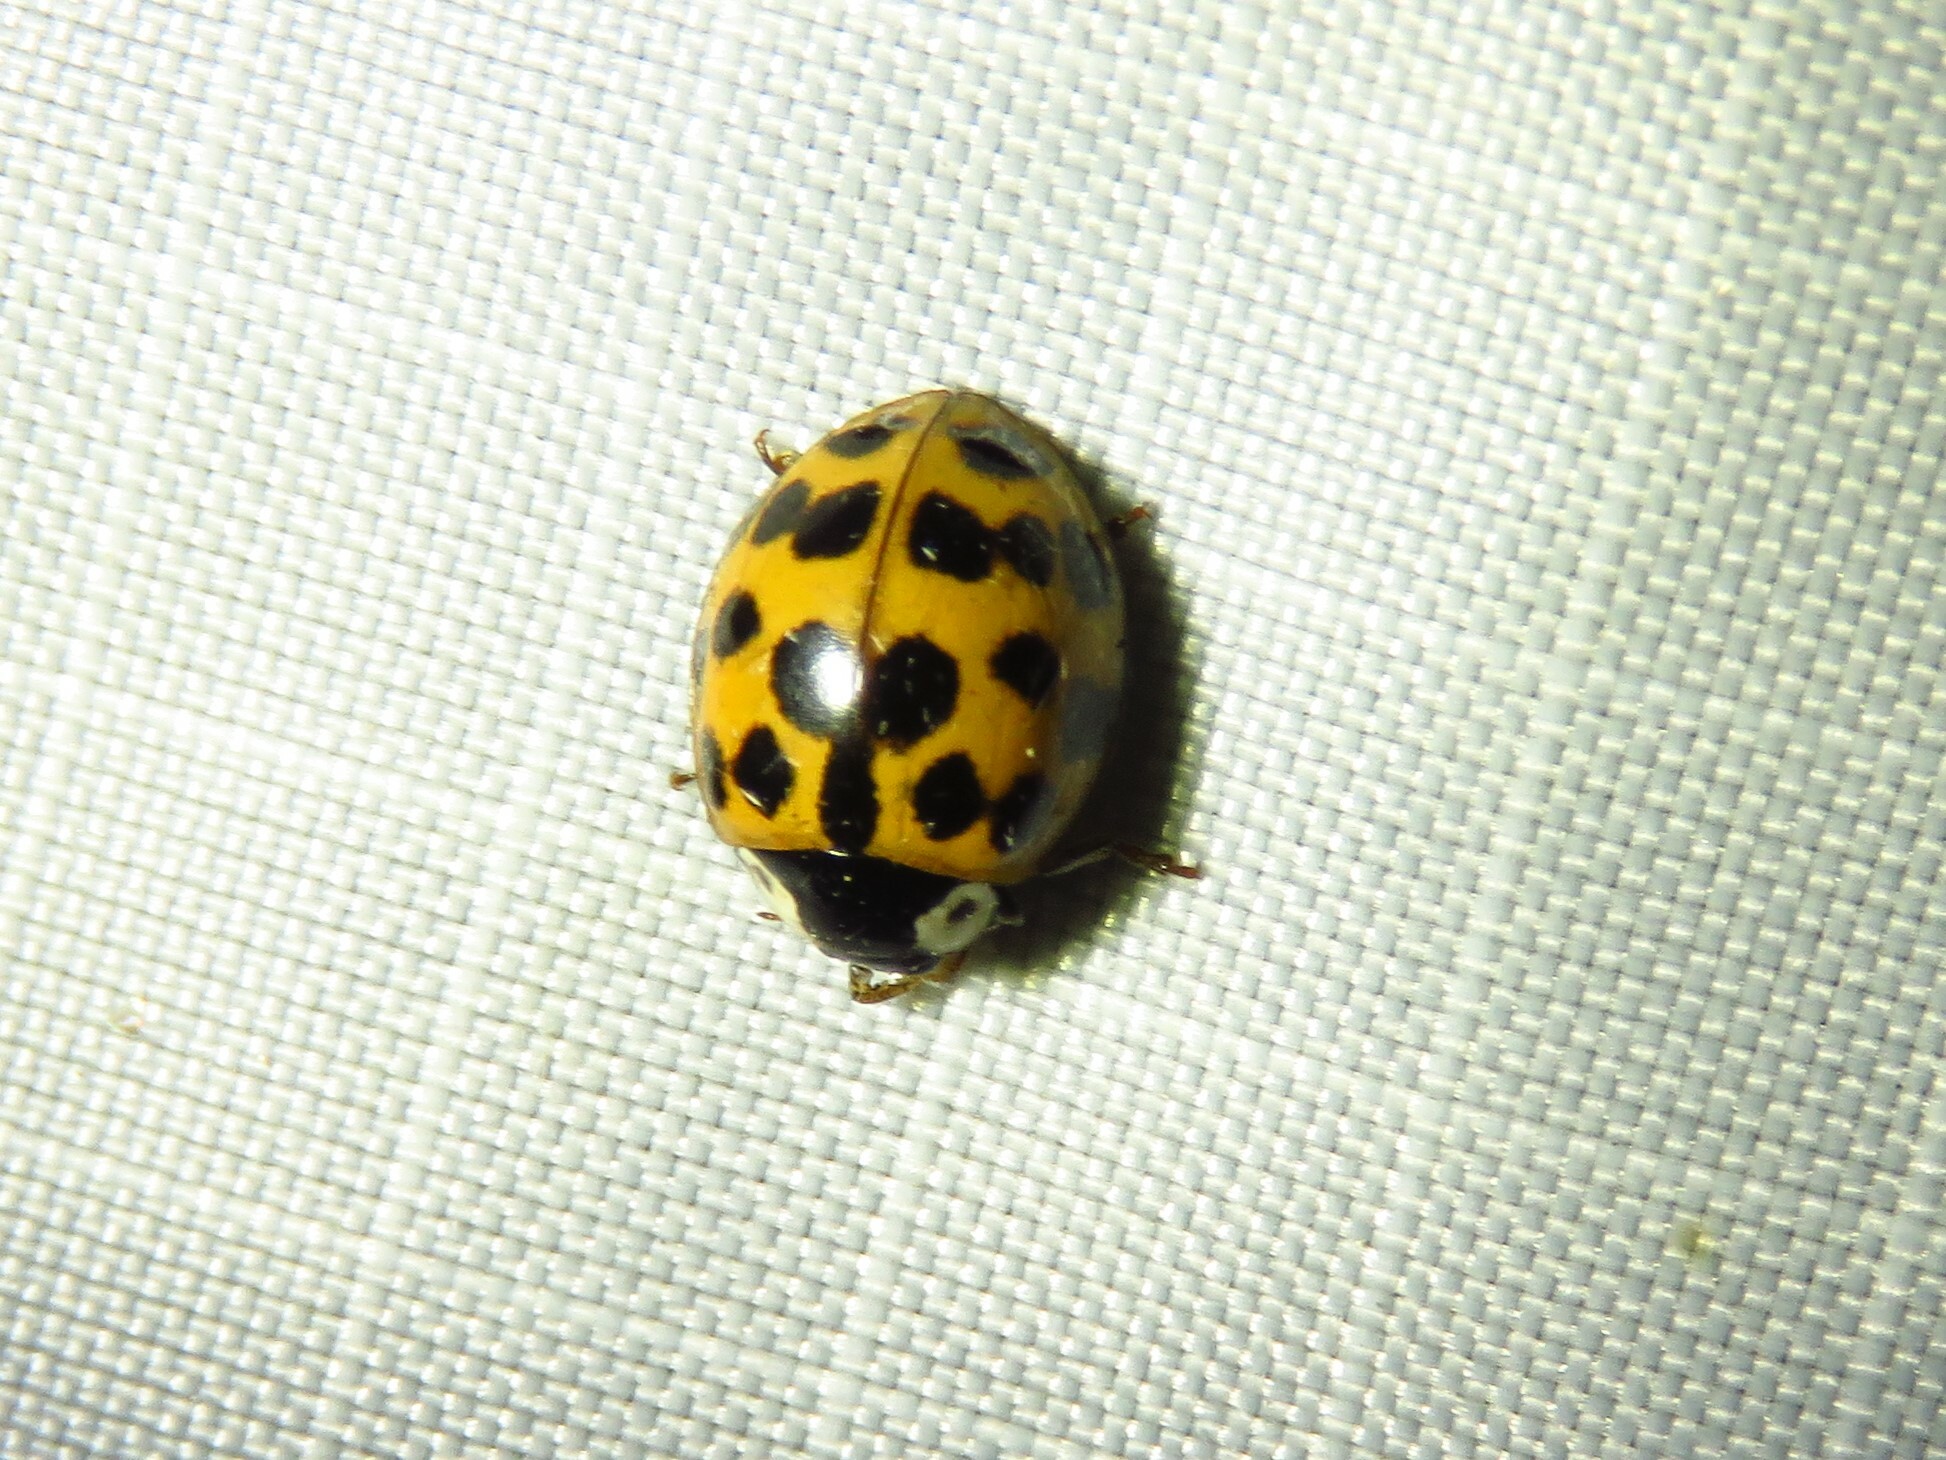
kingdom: Animalia
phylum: Arthropoda
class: Insecta
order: Coleoptera
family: Coccinellidae
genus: Harmonia
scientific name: Harmonia axyridis
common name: Harlequin ladybird
